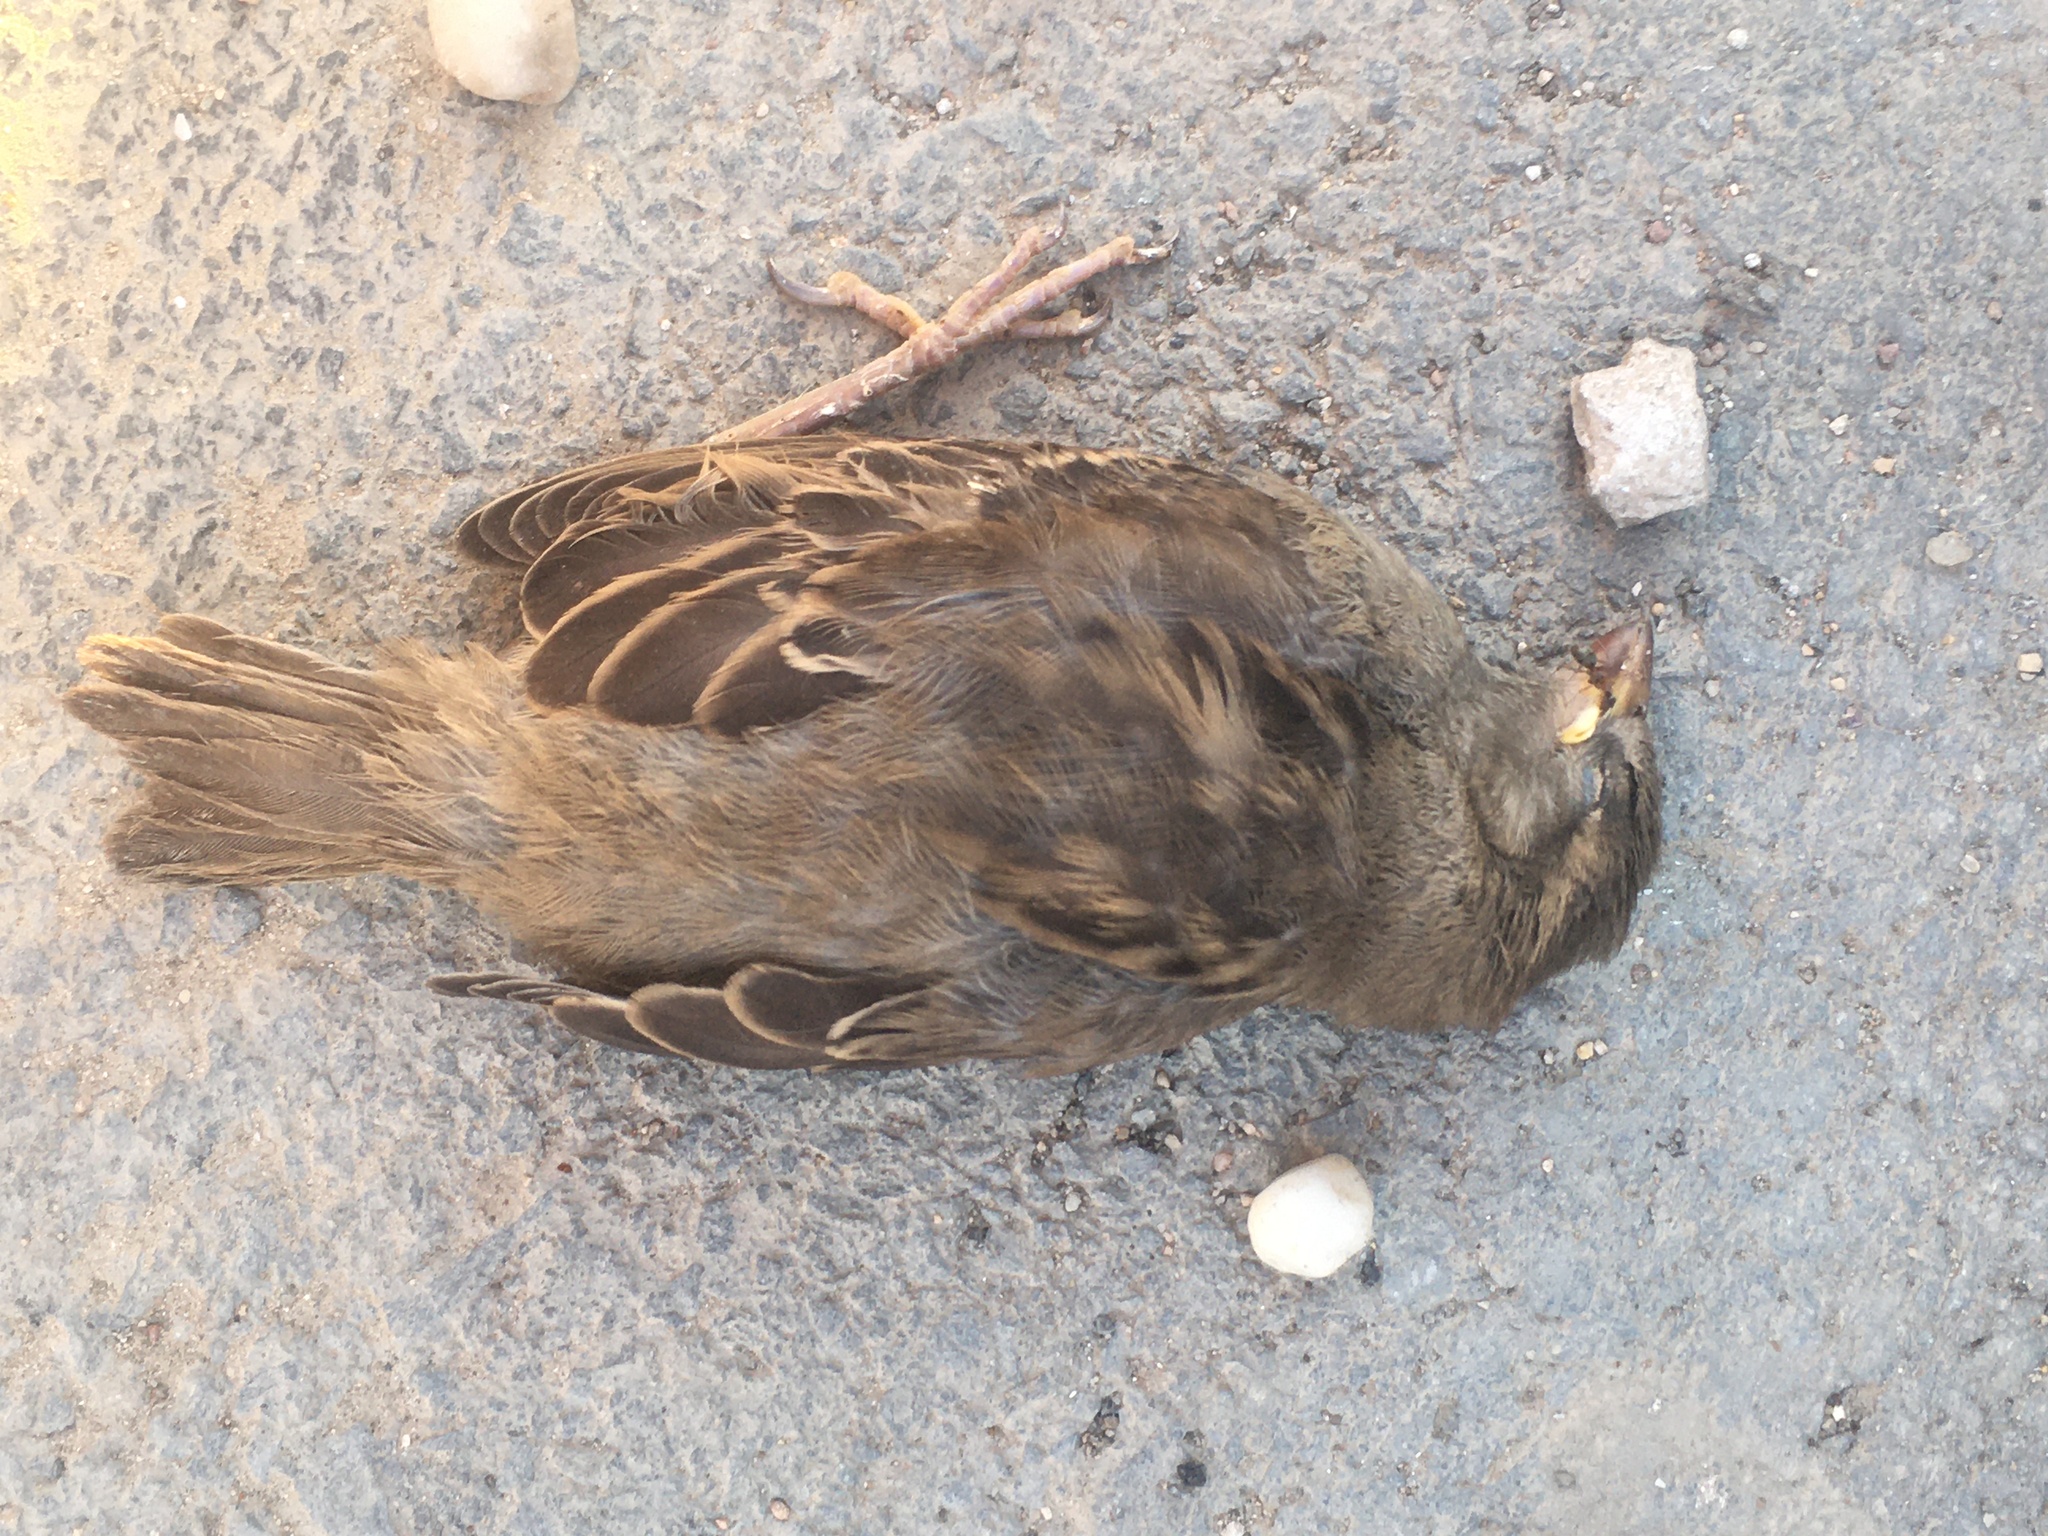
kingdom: Animalia
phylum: Chordata
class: Aves
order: Passeriformes
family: Passeridae
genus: Passer
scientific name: Passer domesticus
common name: House sparrow
